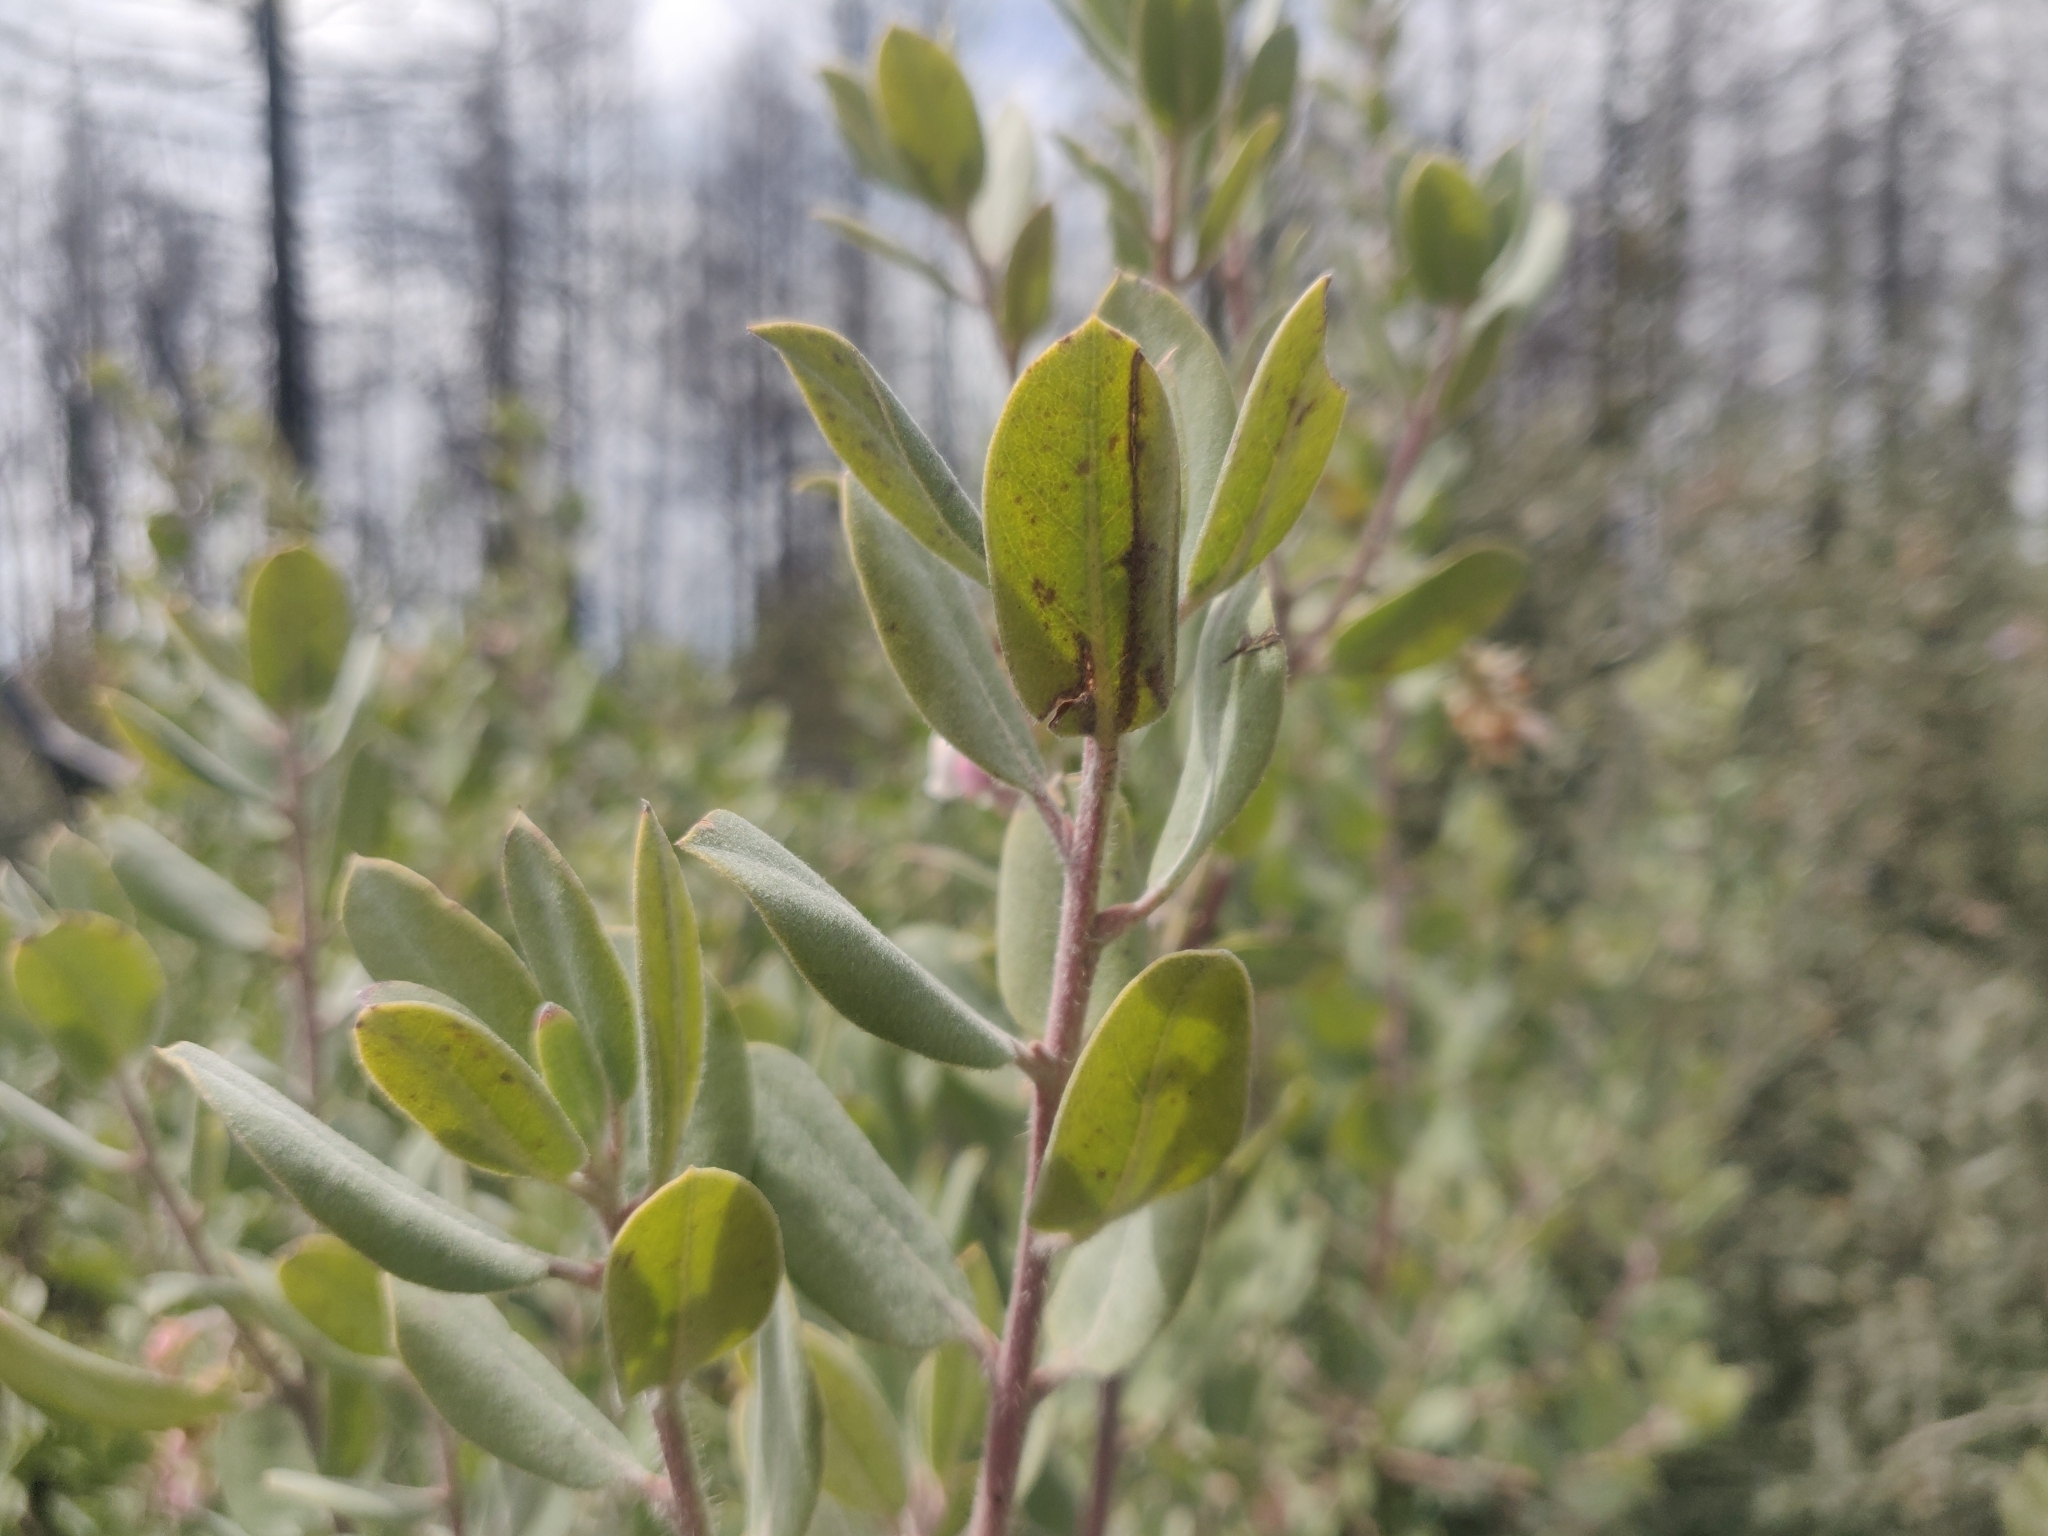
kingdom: Plantae
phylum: Tracheophyta
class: Magnoliopsida
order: Ericales
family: Ericaceae
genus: Arctostaphylos
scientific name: Arctostaphylos crustacea
